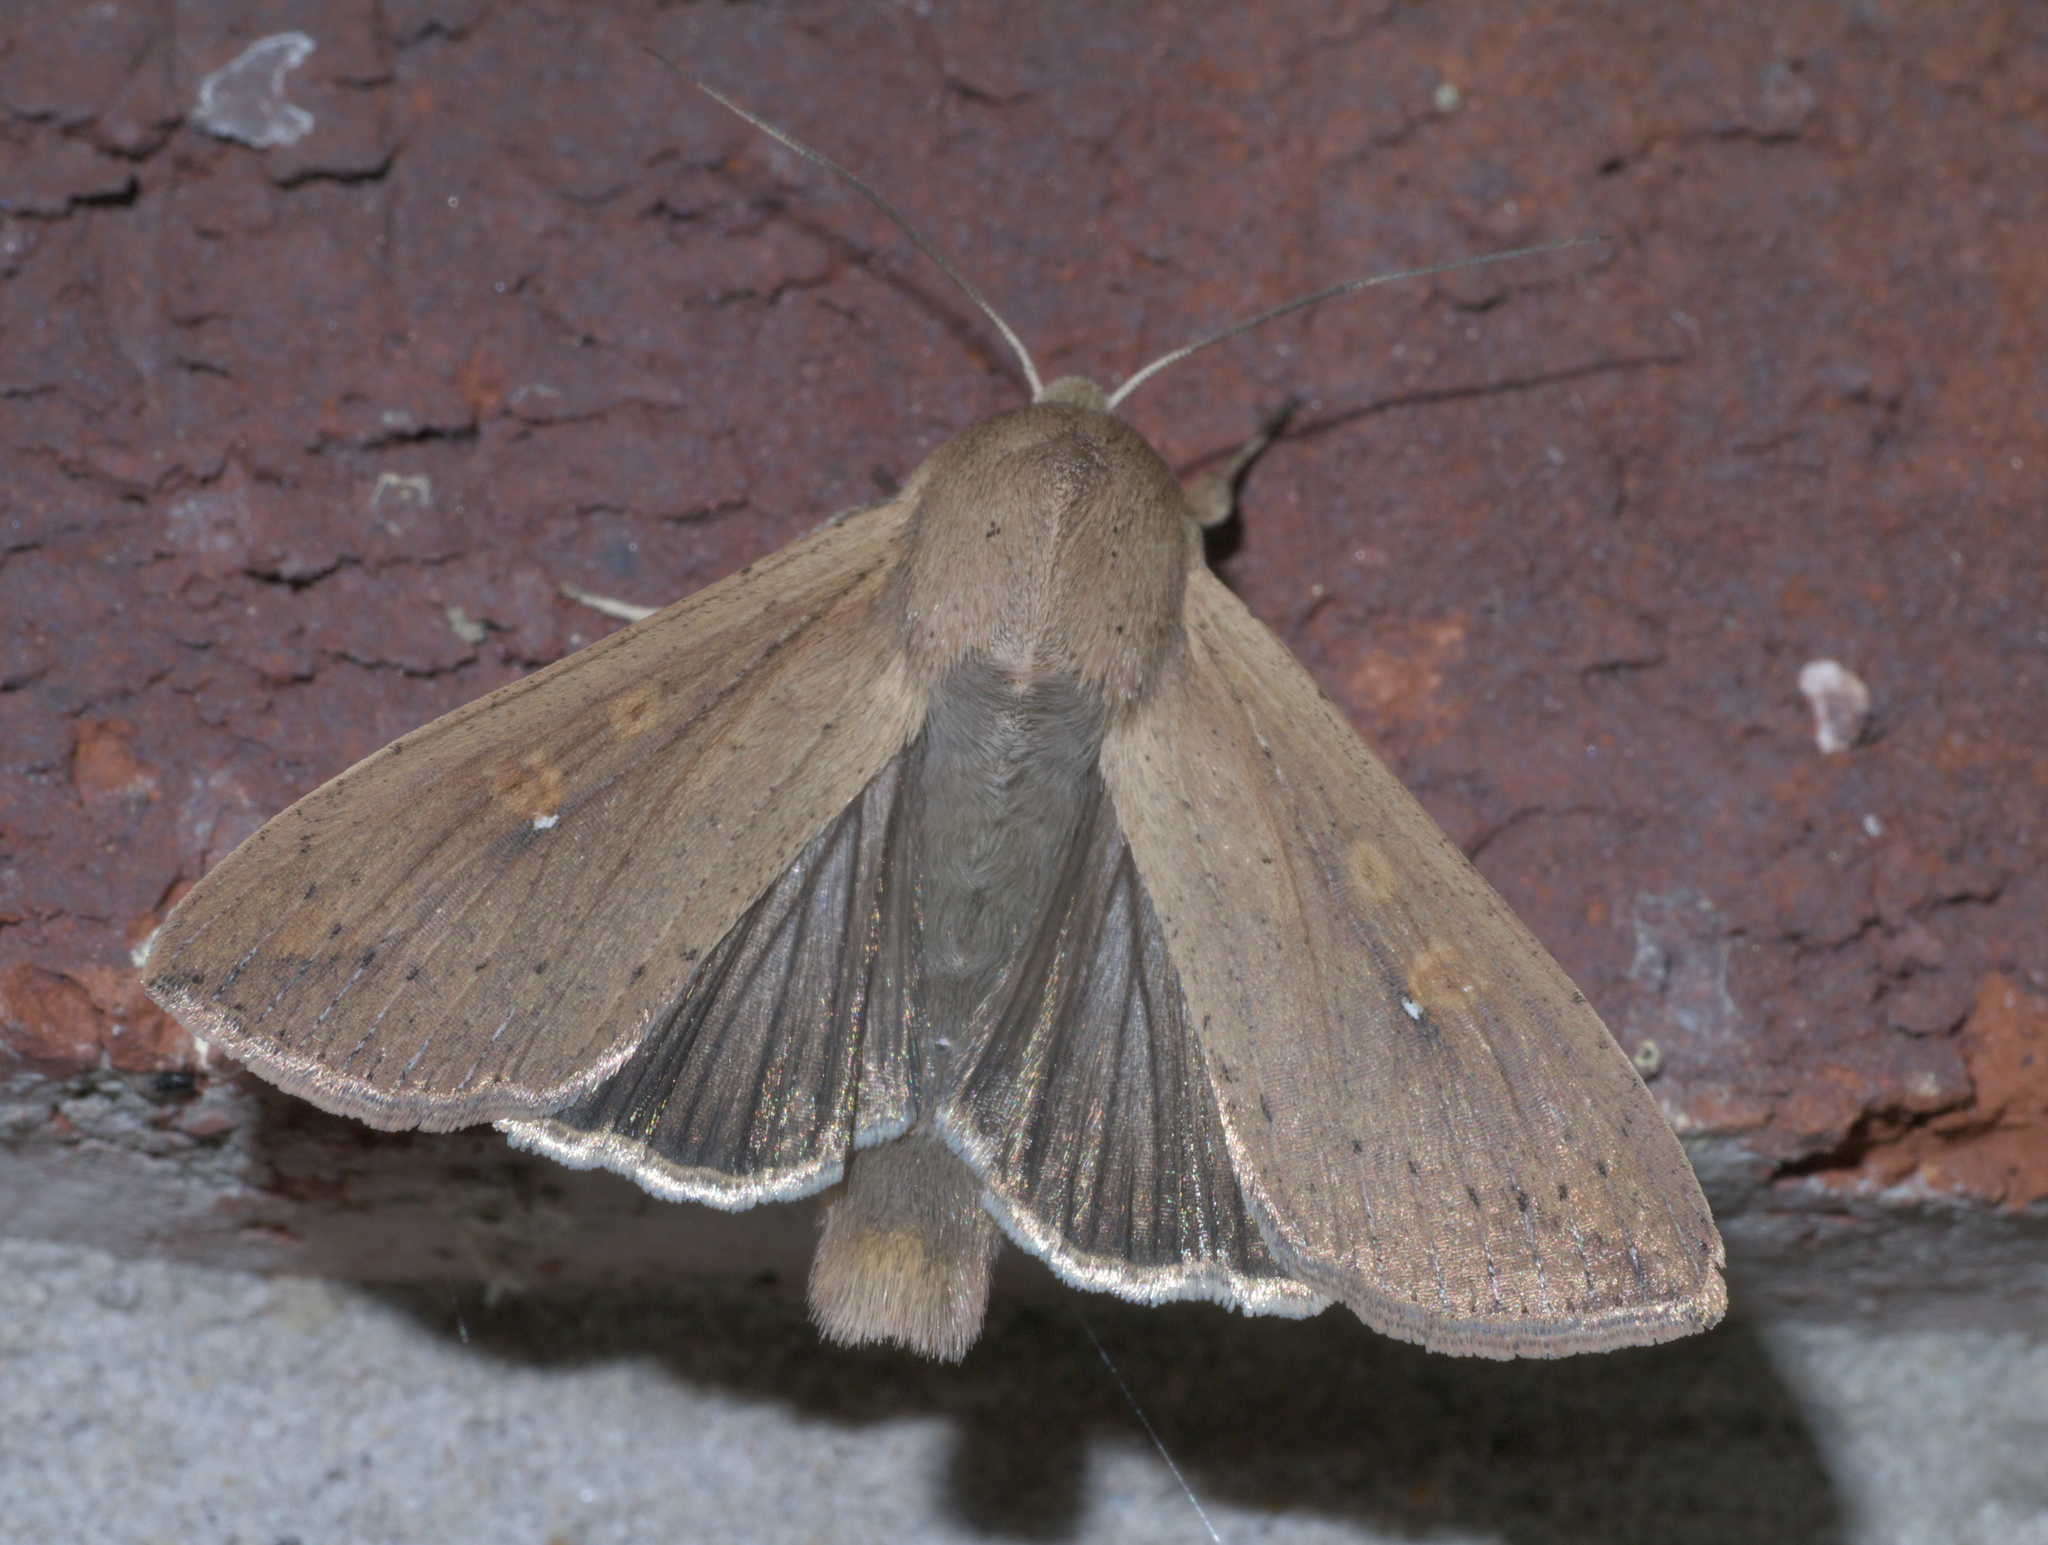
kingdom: Animalia
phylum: Arthropoda
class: Insecta
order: Lepidoptera
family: Noctuidae
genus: Mythimna
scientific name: Mythimna unipuncta
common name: White-speck
